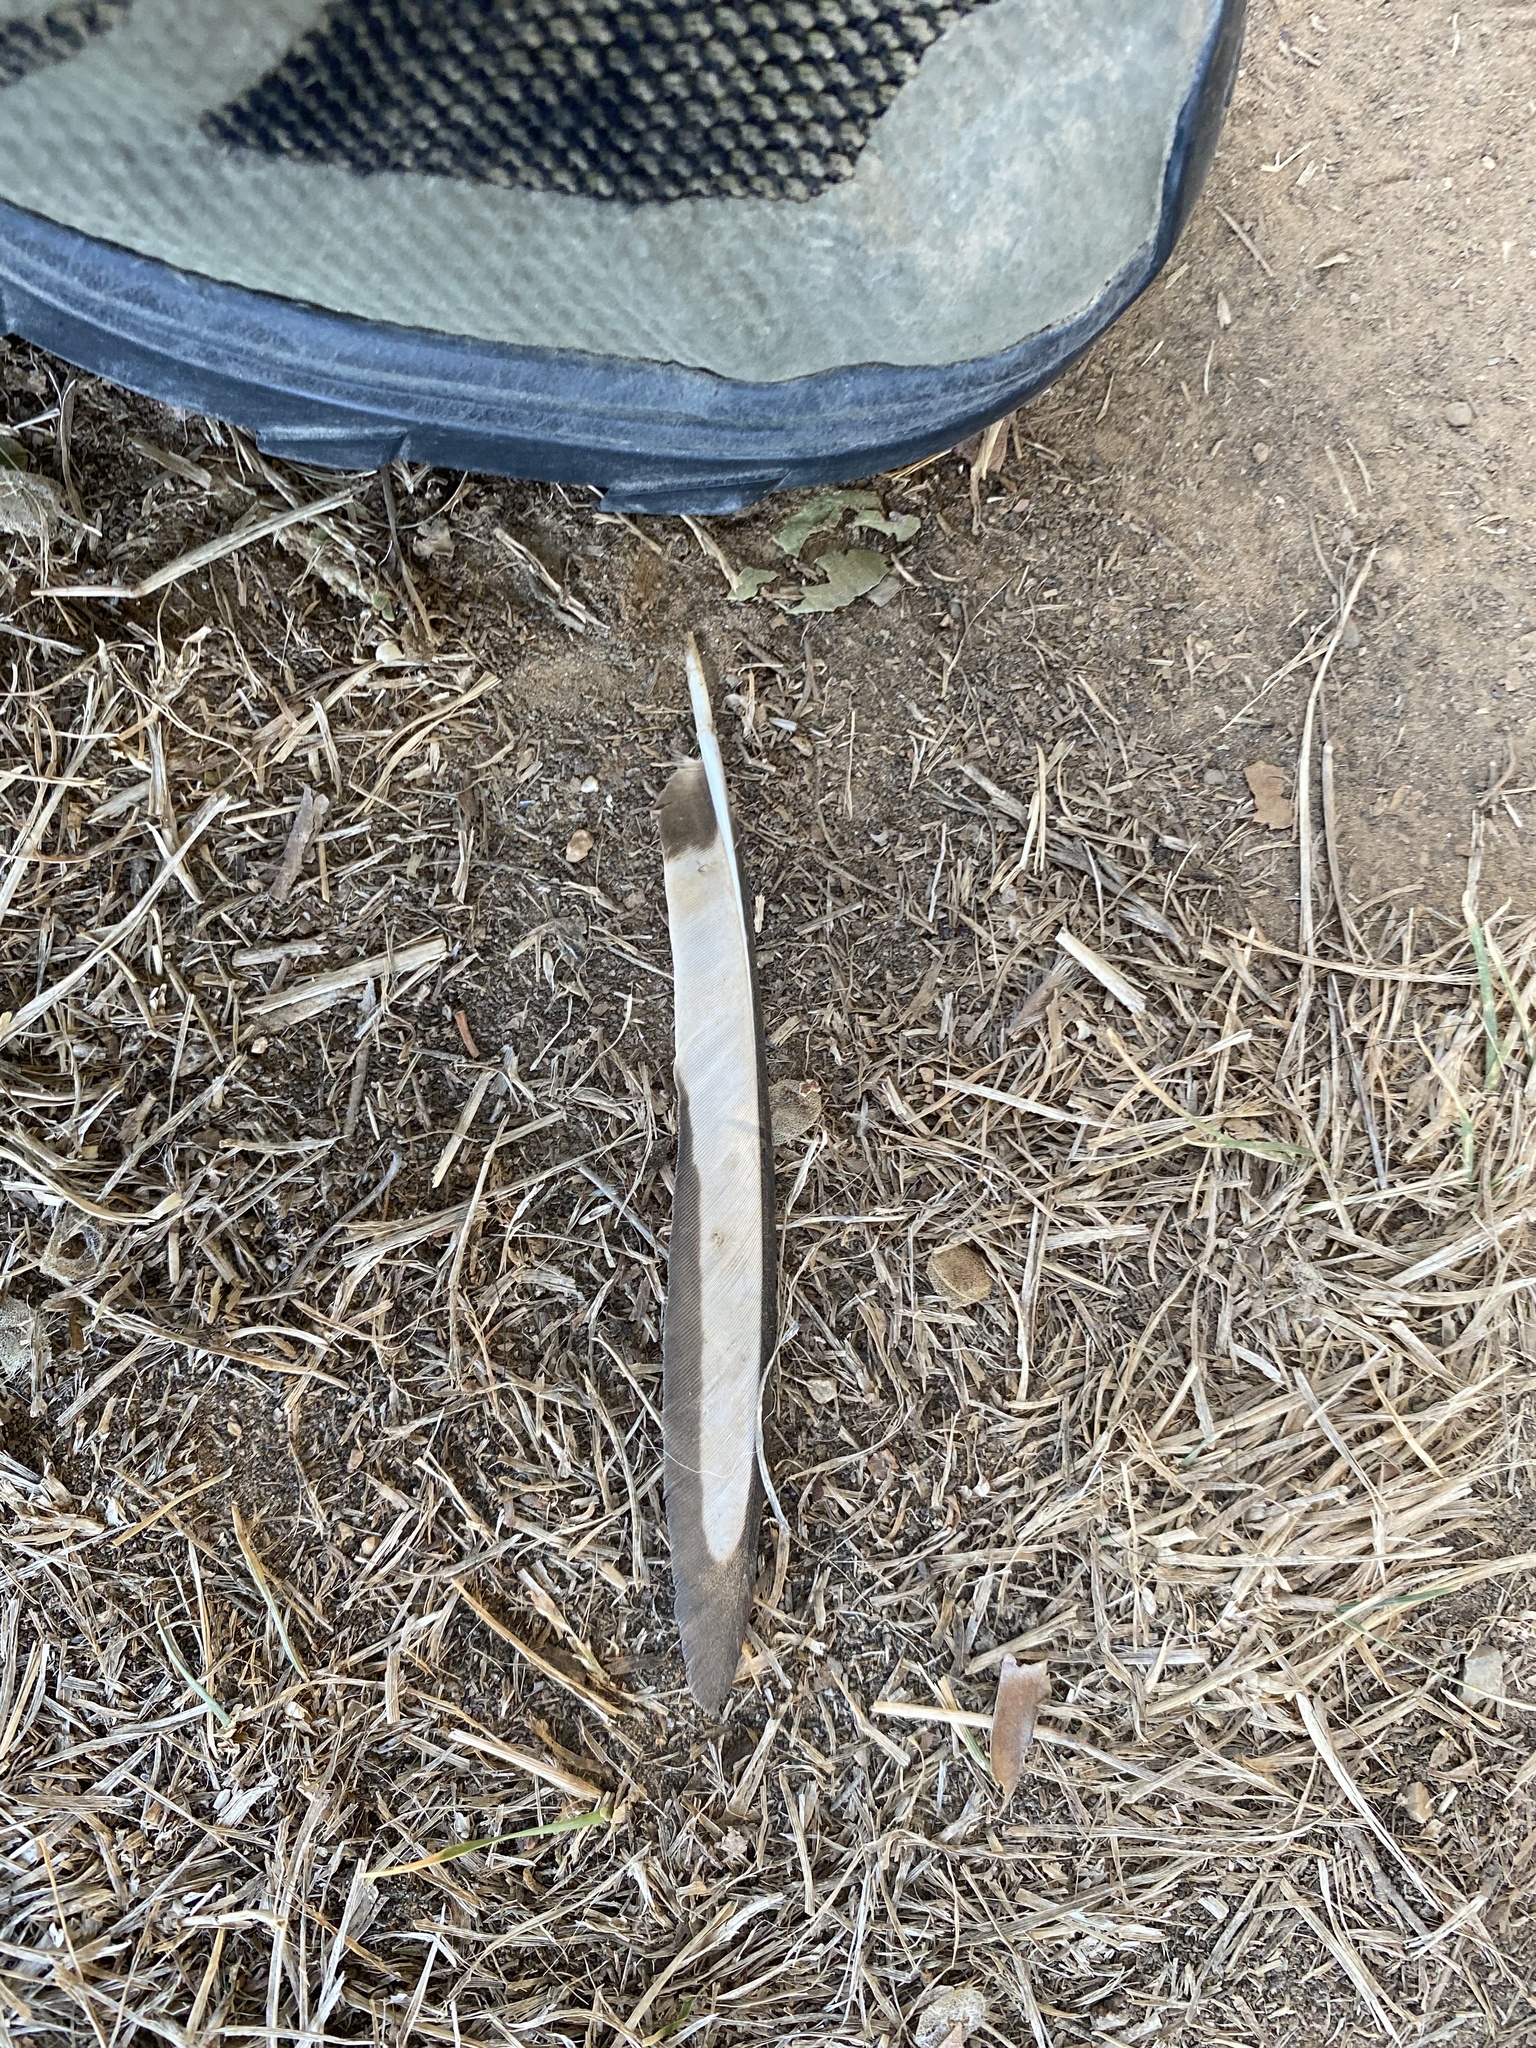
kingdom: Animalia
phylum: Chordata
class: Aves
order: Passeriformes
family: Corvidae
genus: Pica
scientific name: Pica pica
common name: Eurasian magpie
